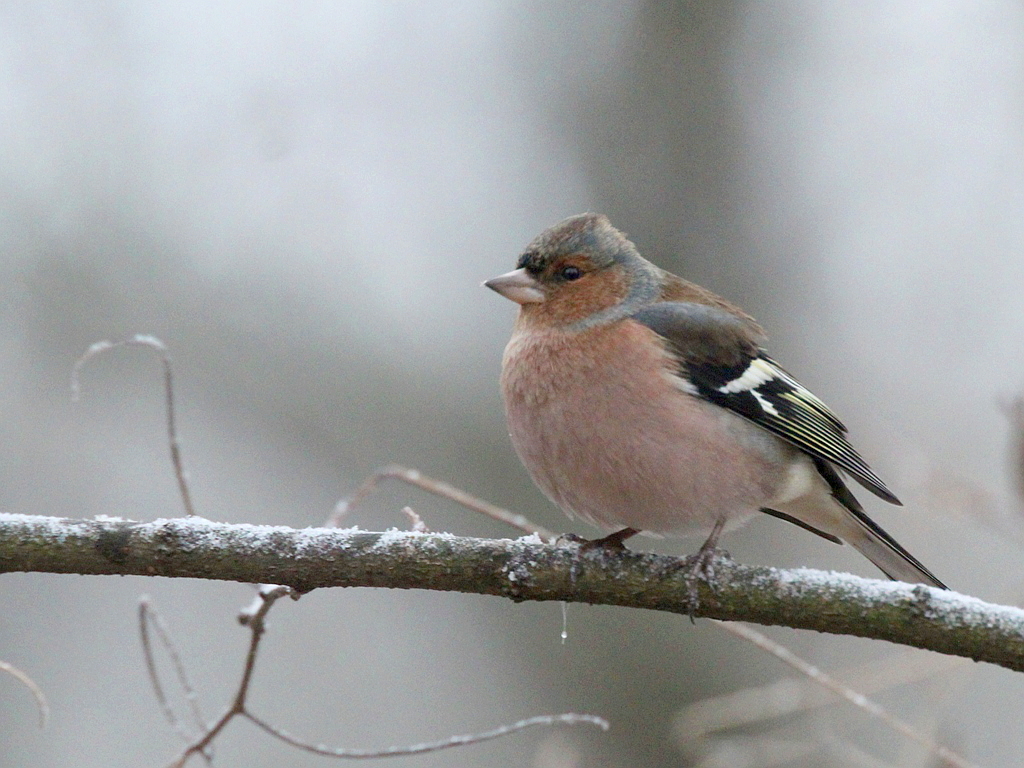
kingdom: Animalia
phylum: Chordata
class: Aves
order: Passeriformes
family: Fringillidae
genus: Fringilla
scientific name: Fringilla coelebs
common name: Common chaffinch
